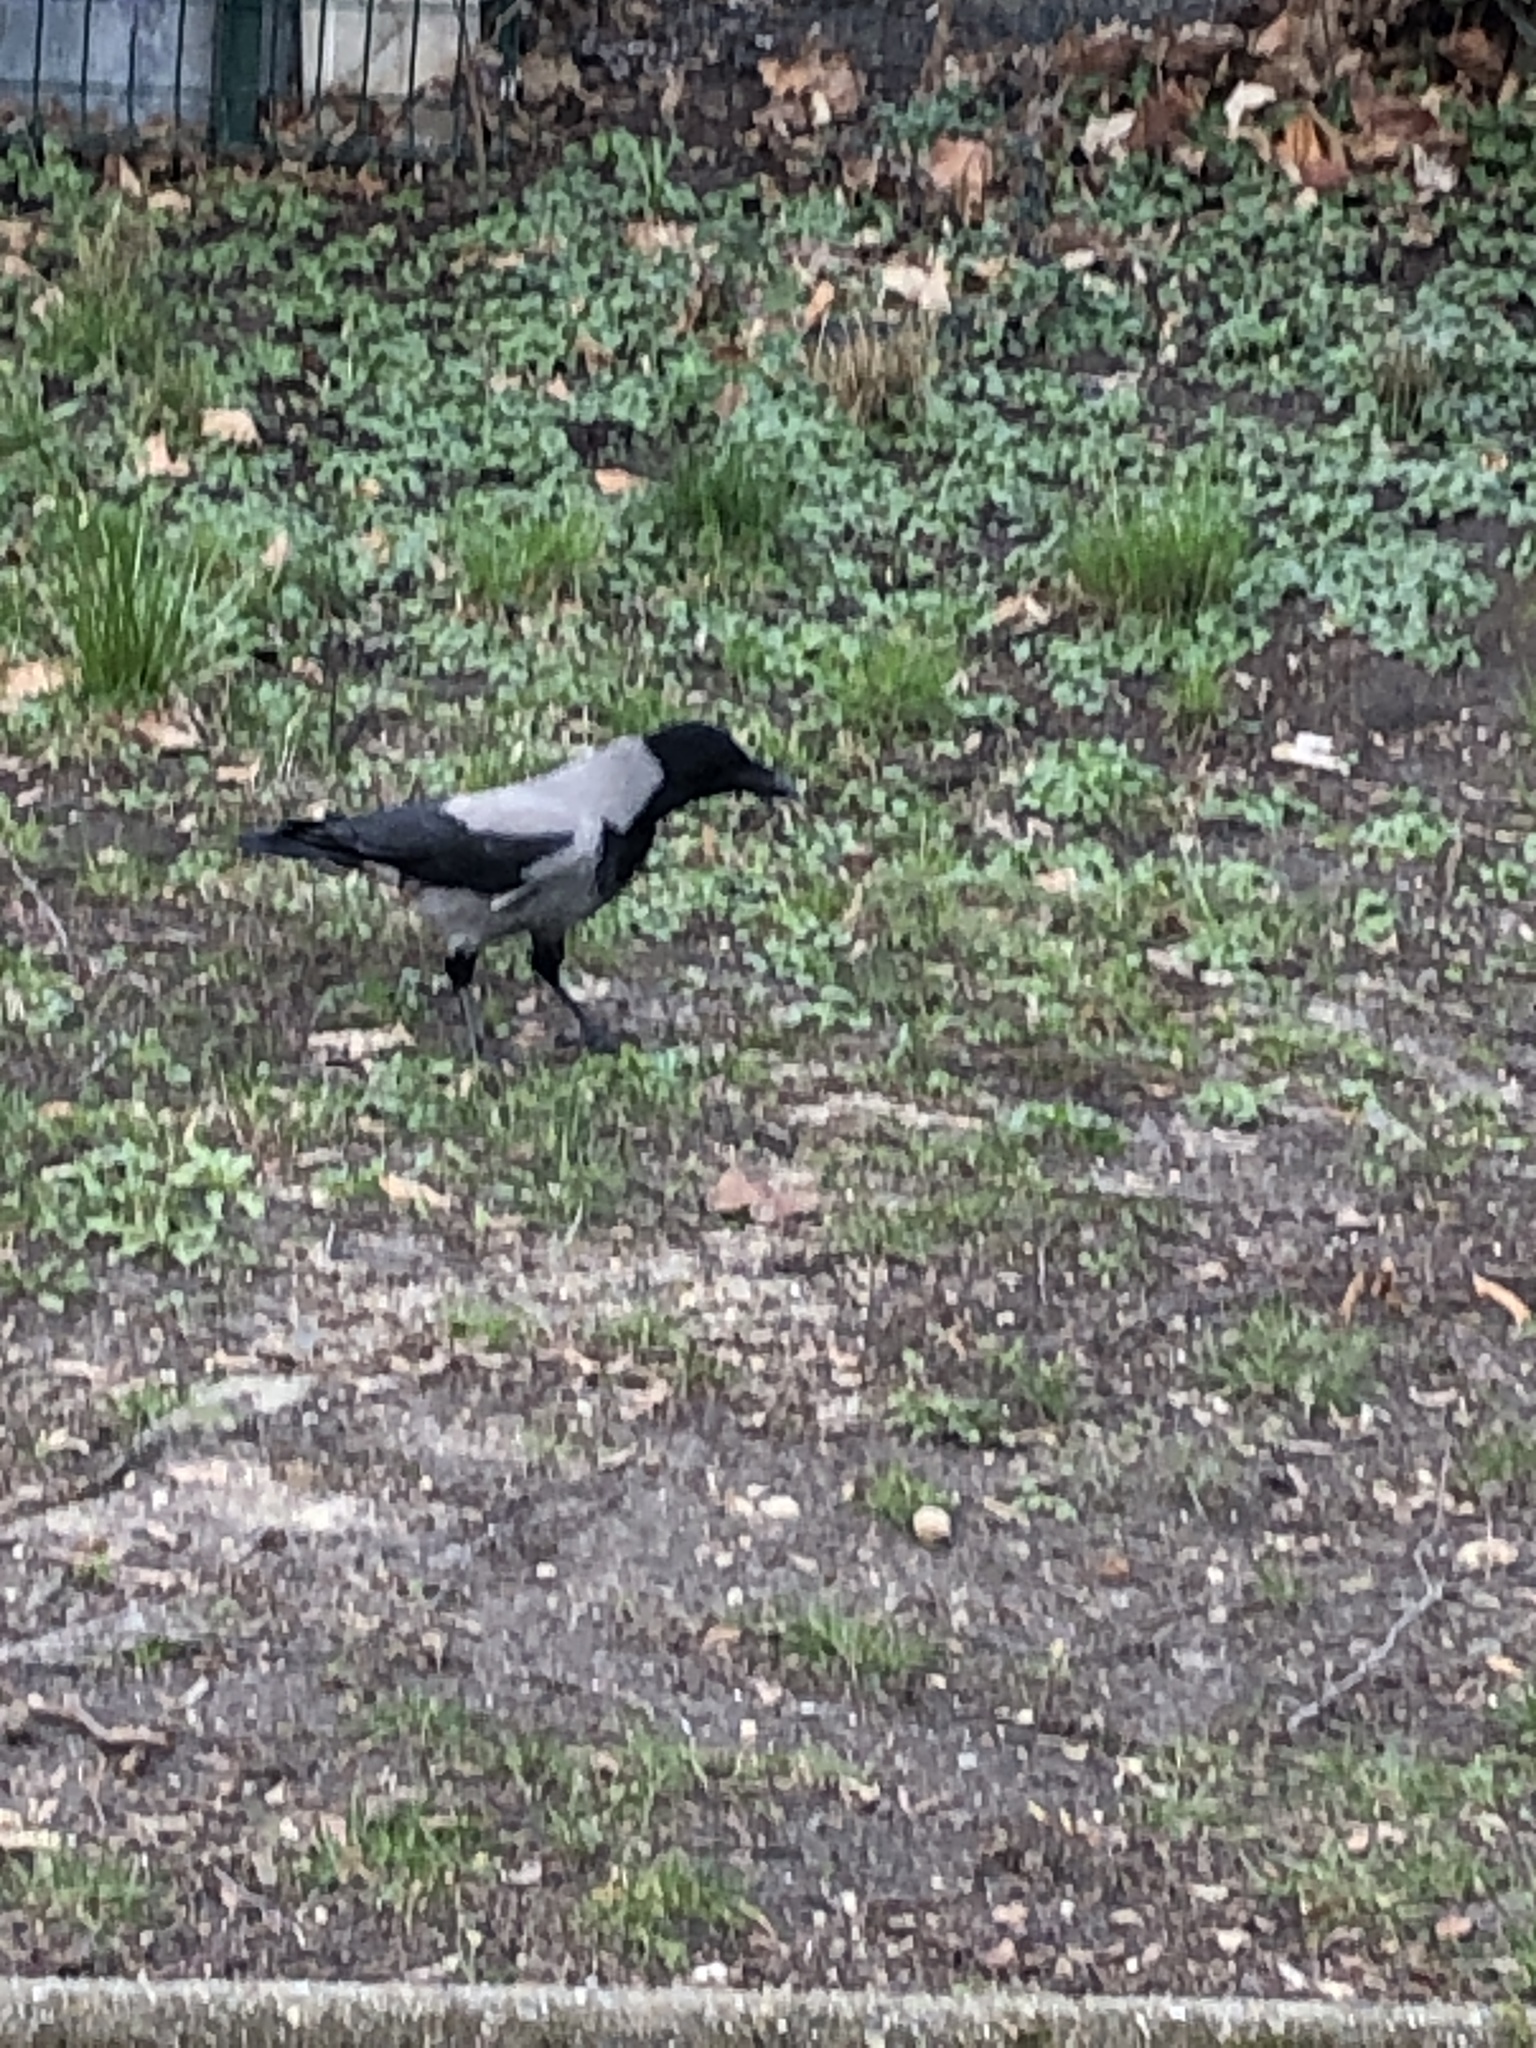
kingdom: Animalia
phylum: Chordata
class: Aves
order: Passeriformes
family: Corvidae
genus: Corvus
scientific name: Corvus cornix
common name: Hooded crow
